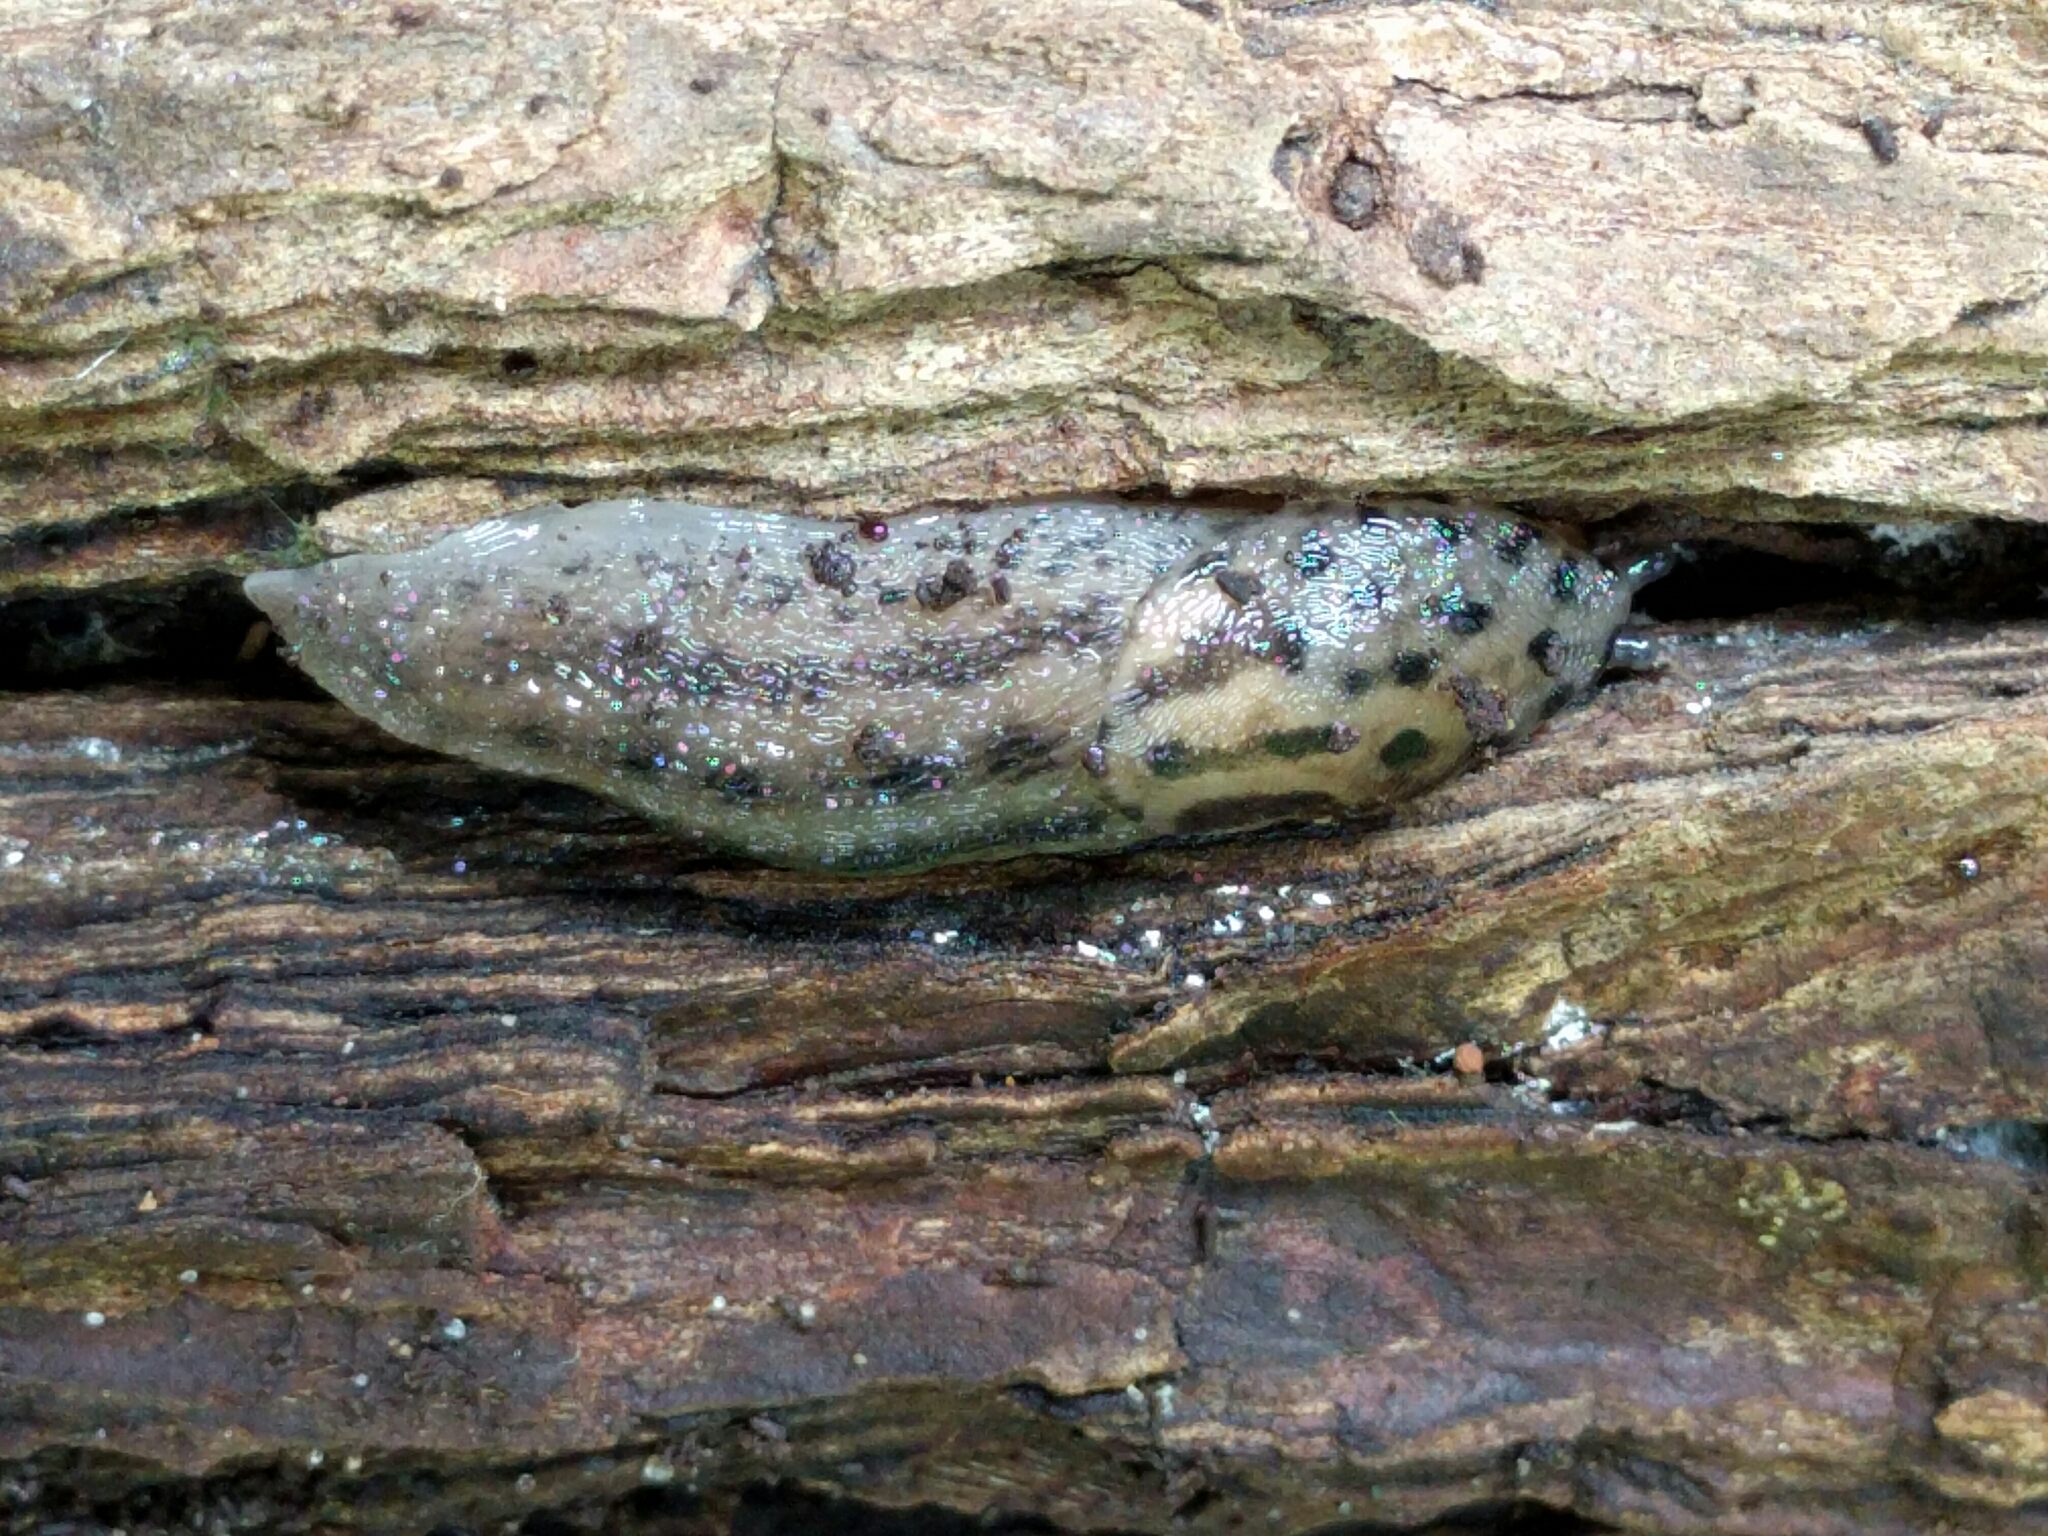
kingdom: Animalia
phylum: Mollusca
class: Gastropoda
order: Stylommatophora
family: Limacidae
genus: Limax
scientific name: Limax maximus
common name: Great grey slug
